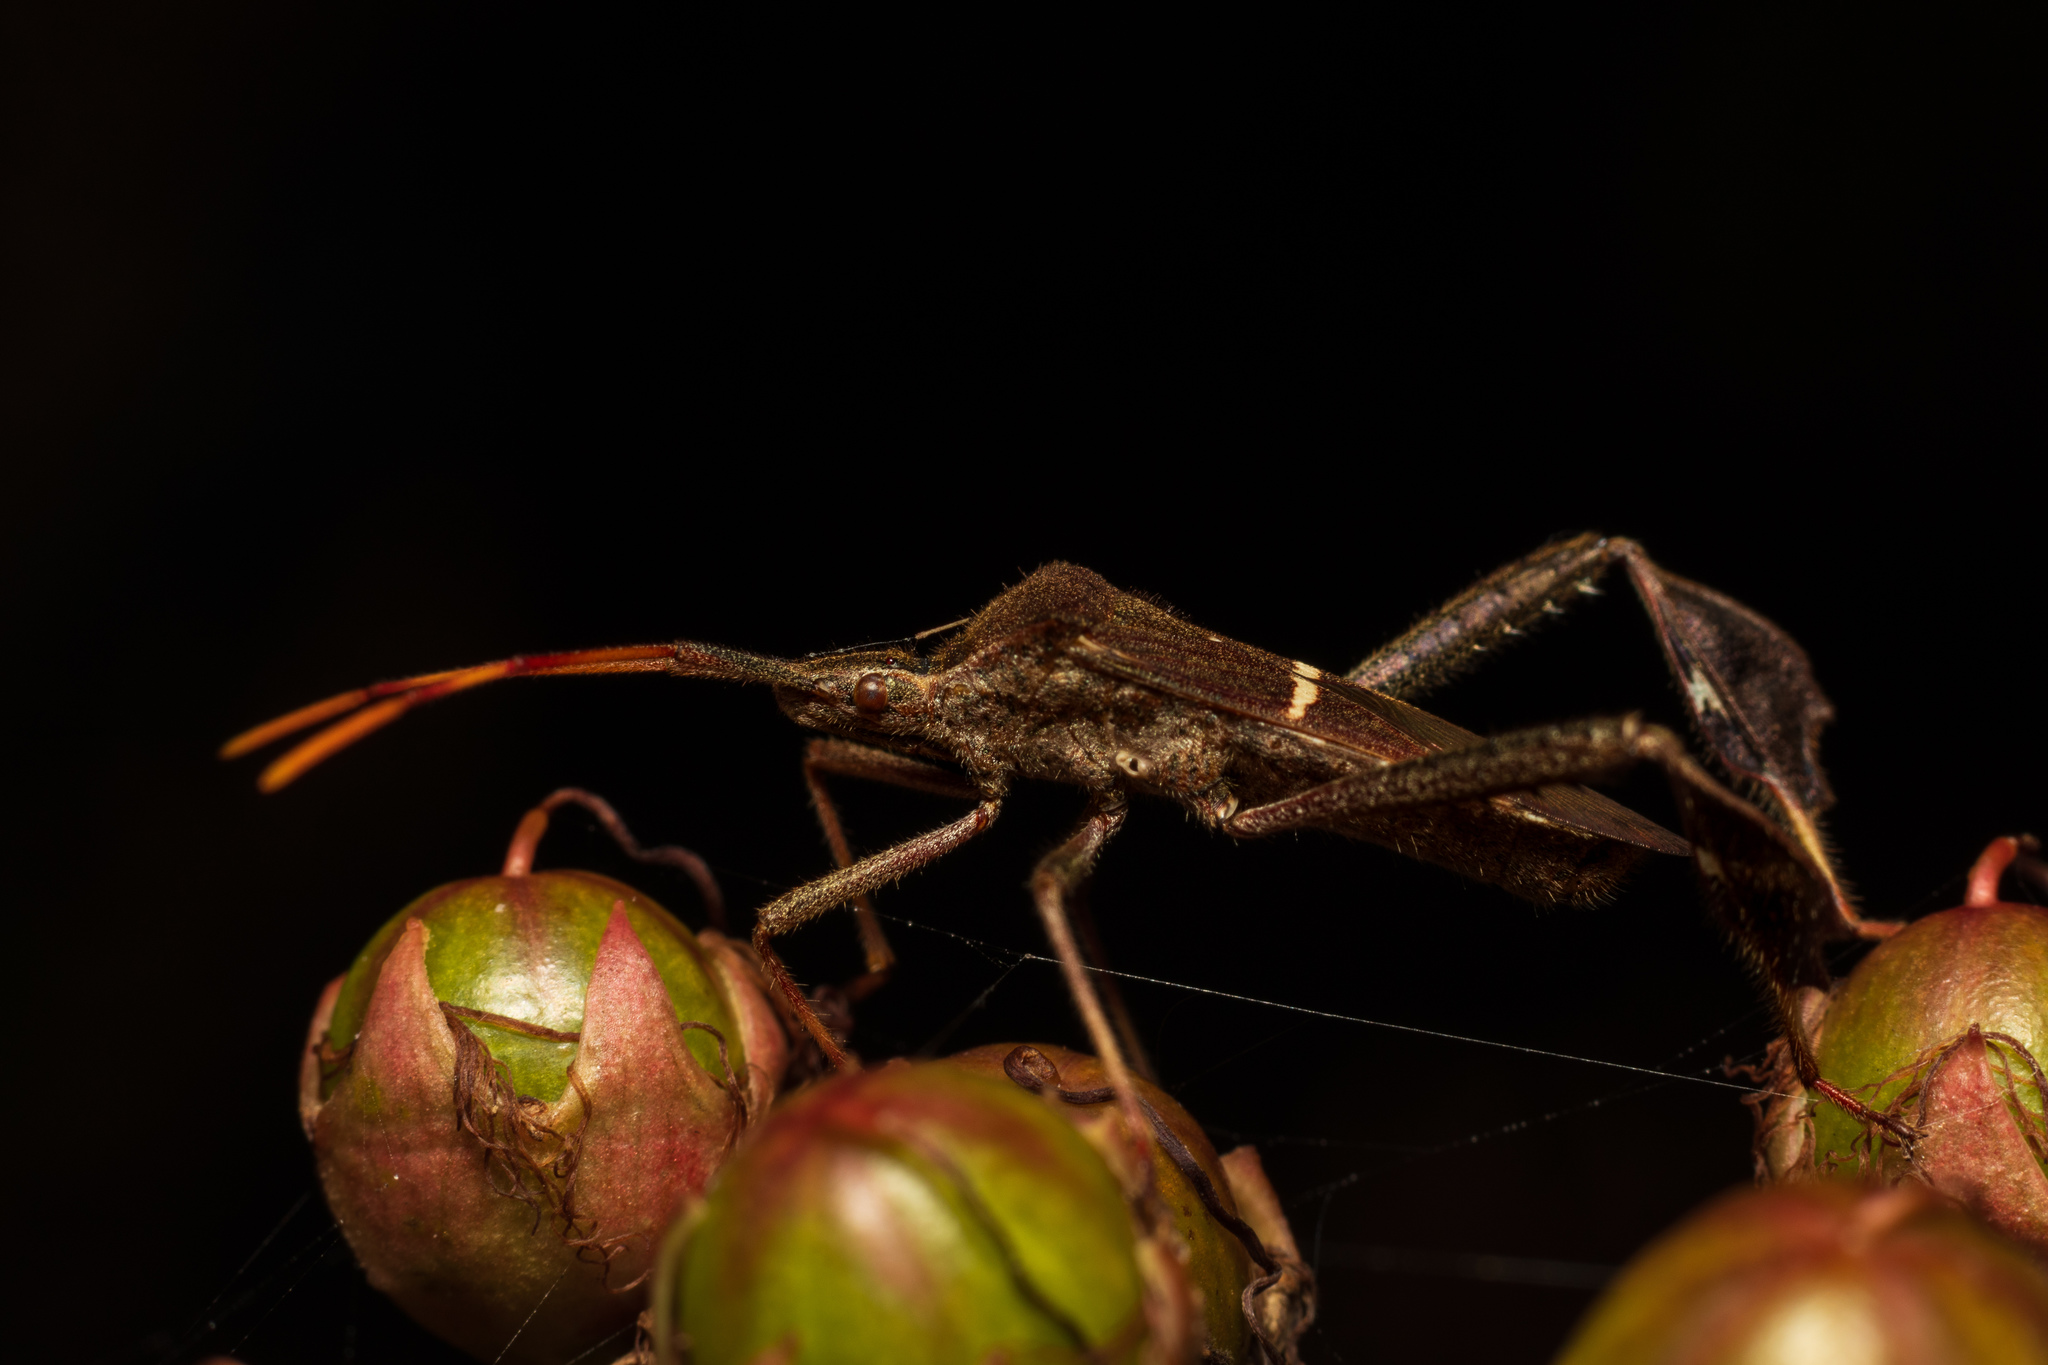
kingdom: Animalia
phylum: Arthropoda
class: Insecta
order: Hemiptera
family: Coreidae
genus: Leptoglossus
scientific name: Leptoglossus phyllopus
